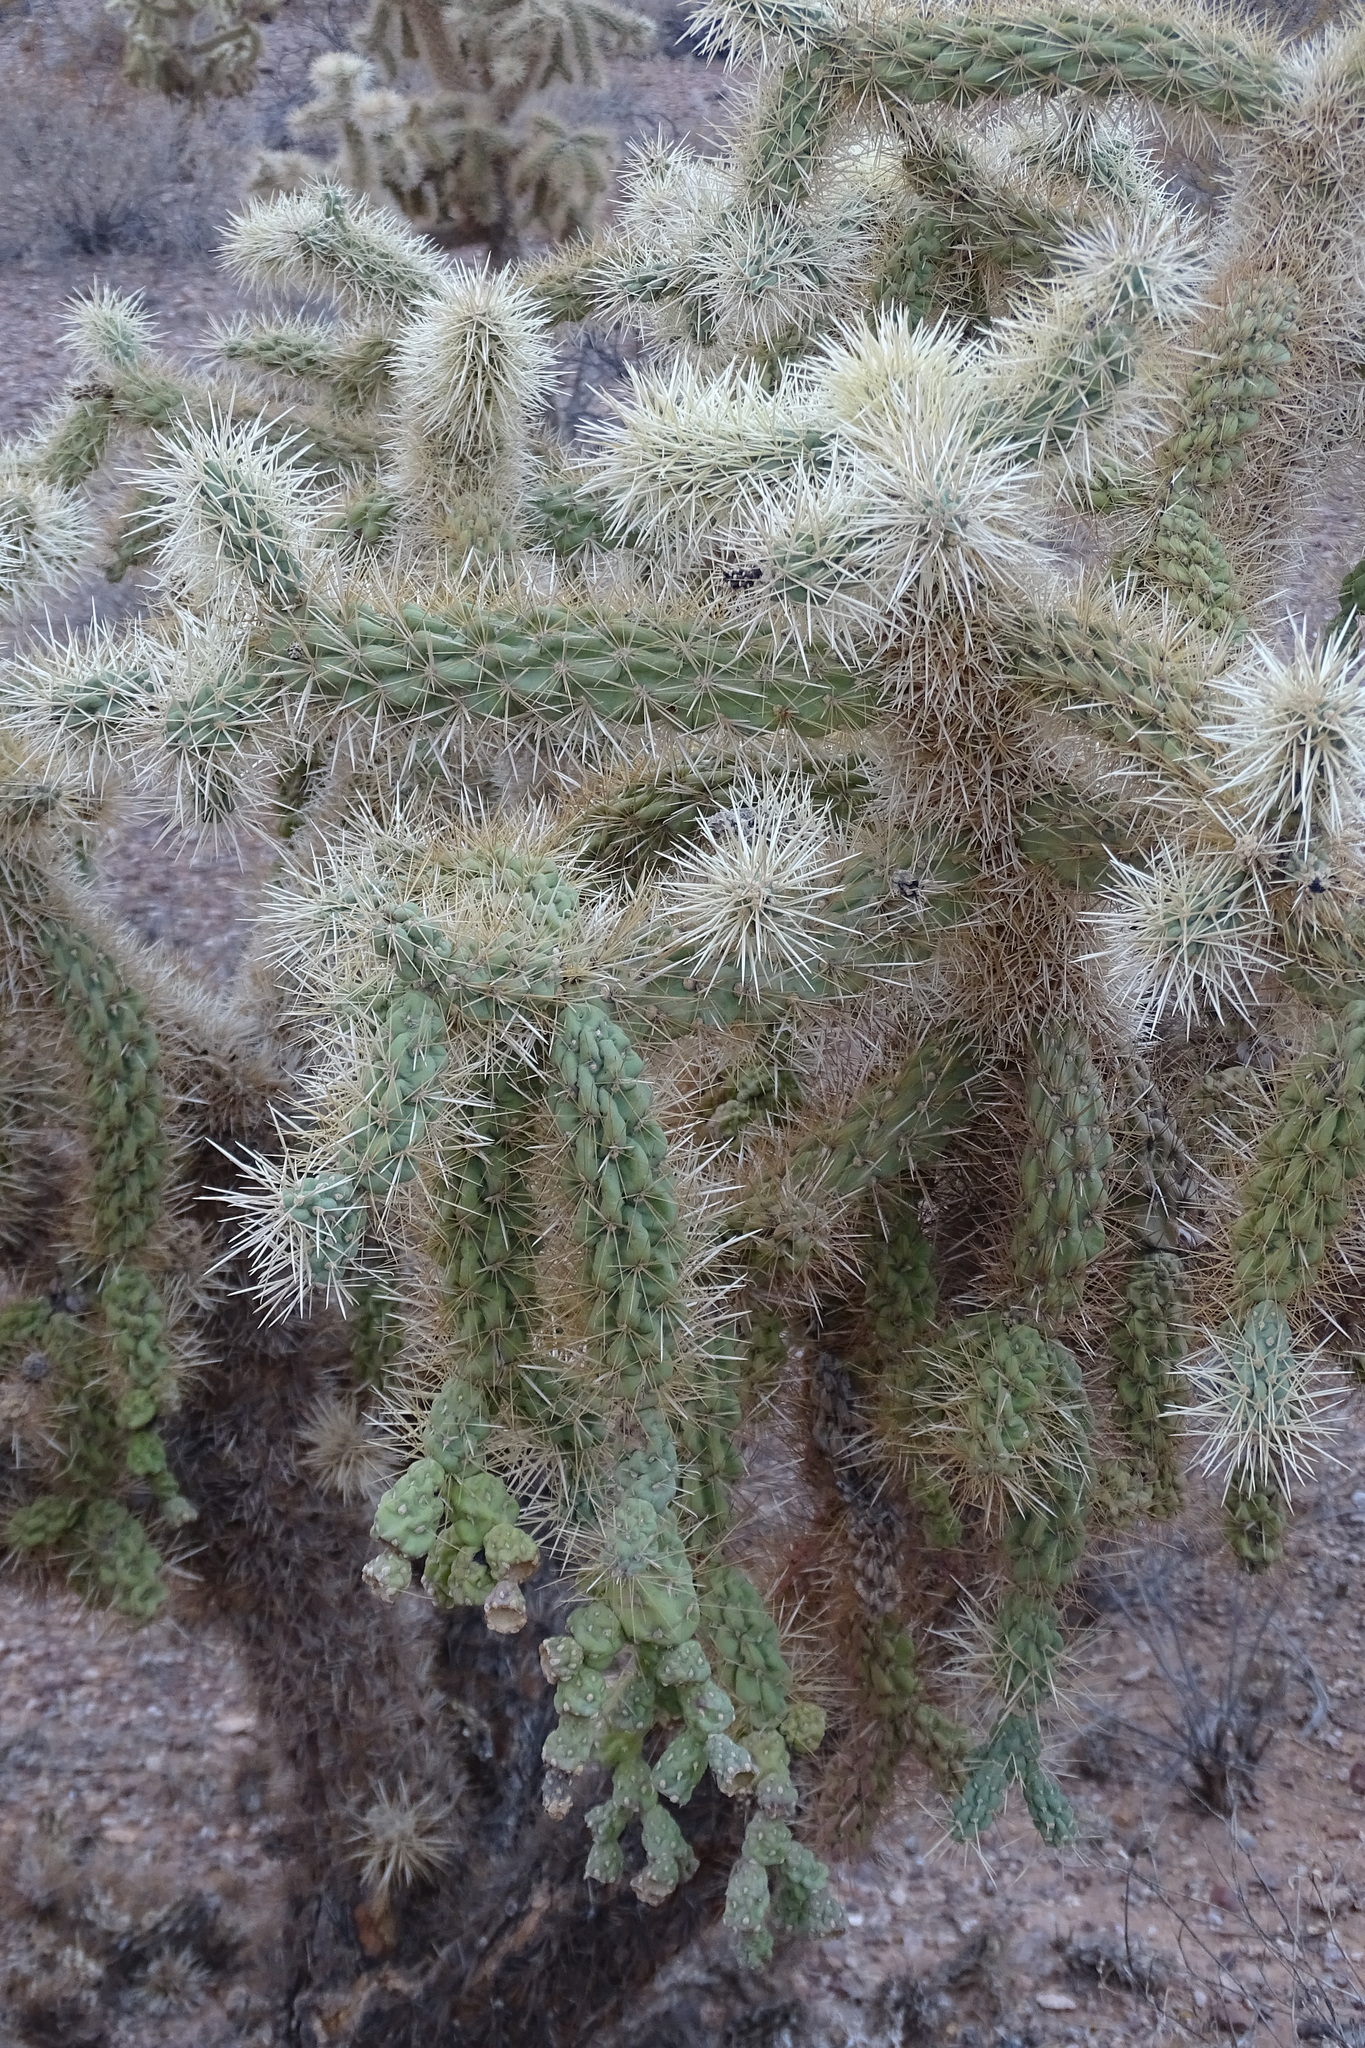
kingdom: Plantae
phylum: Tracheophyta
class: Magnoliopsida
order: Caryophyllales
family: Cactaceae
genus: Cylindropuntia
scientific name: Cylindropuntia fulgida
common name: Jumping cholla
